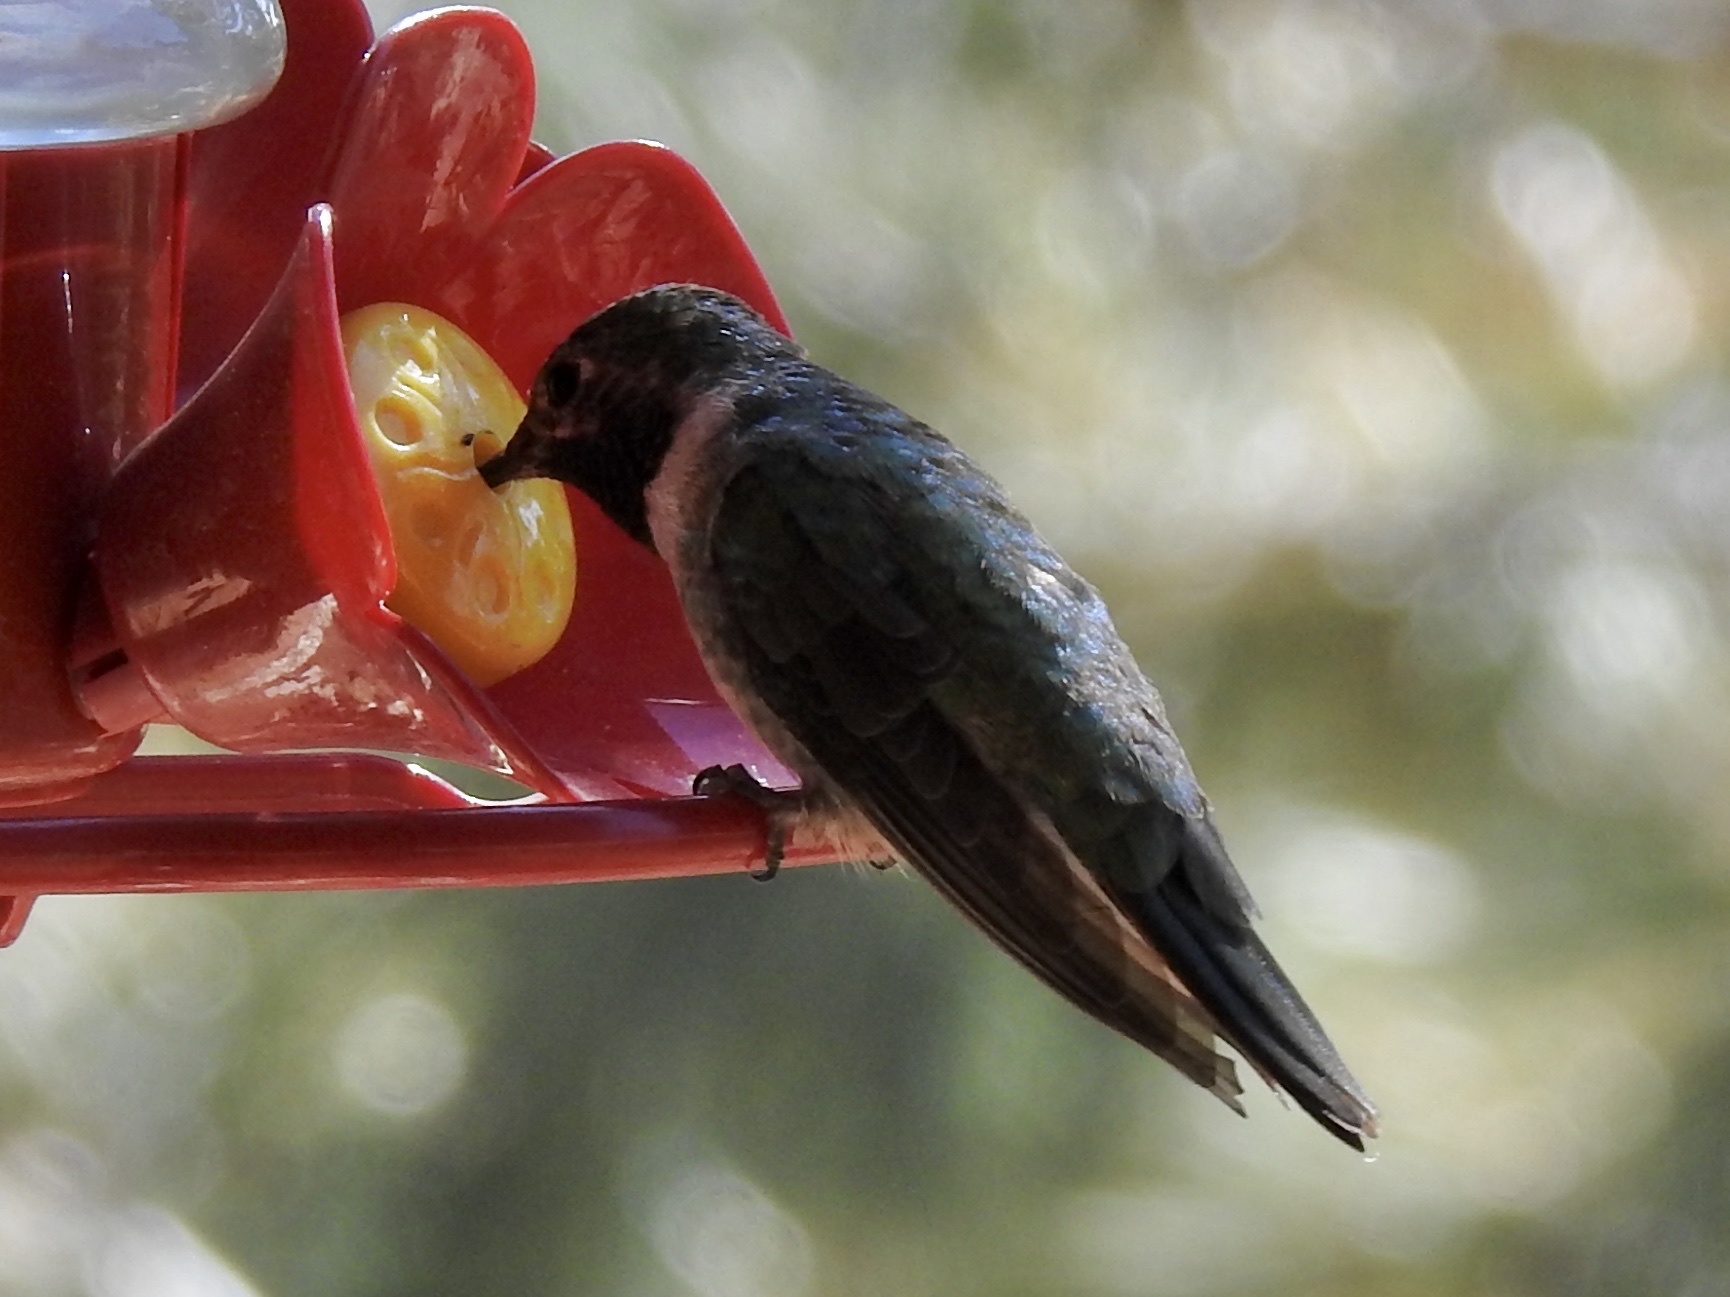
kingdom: Animalia
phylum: Chordata
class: Aves
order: Apodiformes
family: Trochilidae
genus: Selasphorus
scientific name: Selasphorus platycercus
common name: Broad-tailed hummingbird
